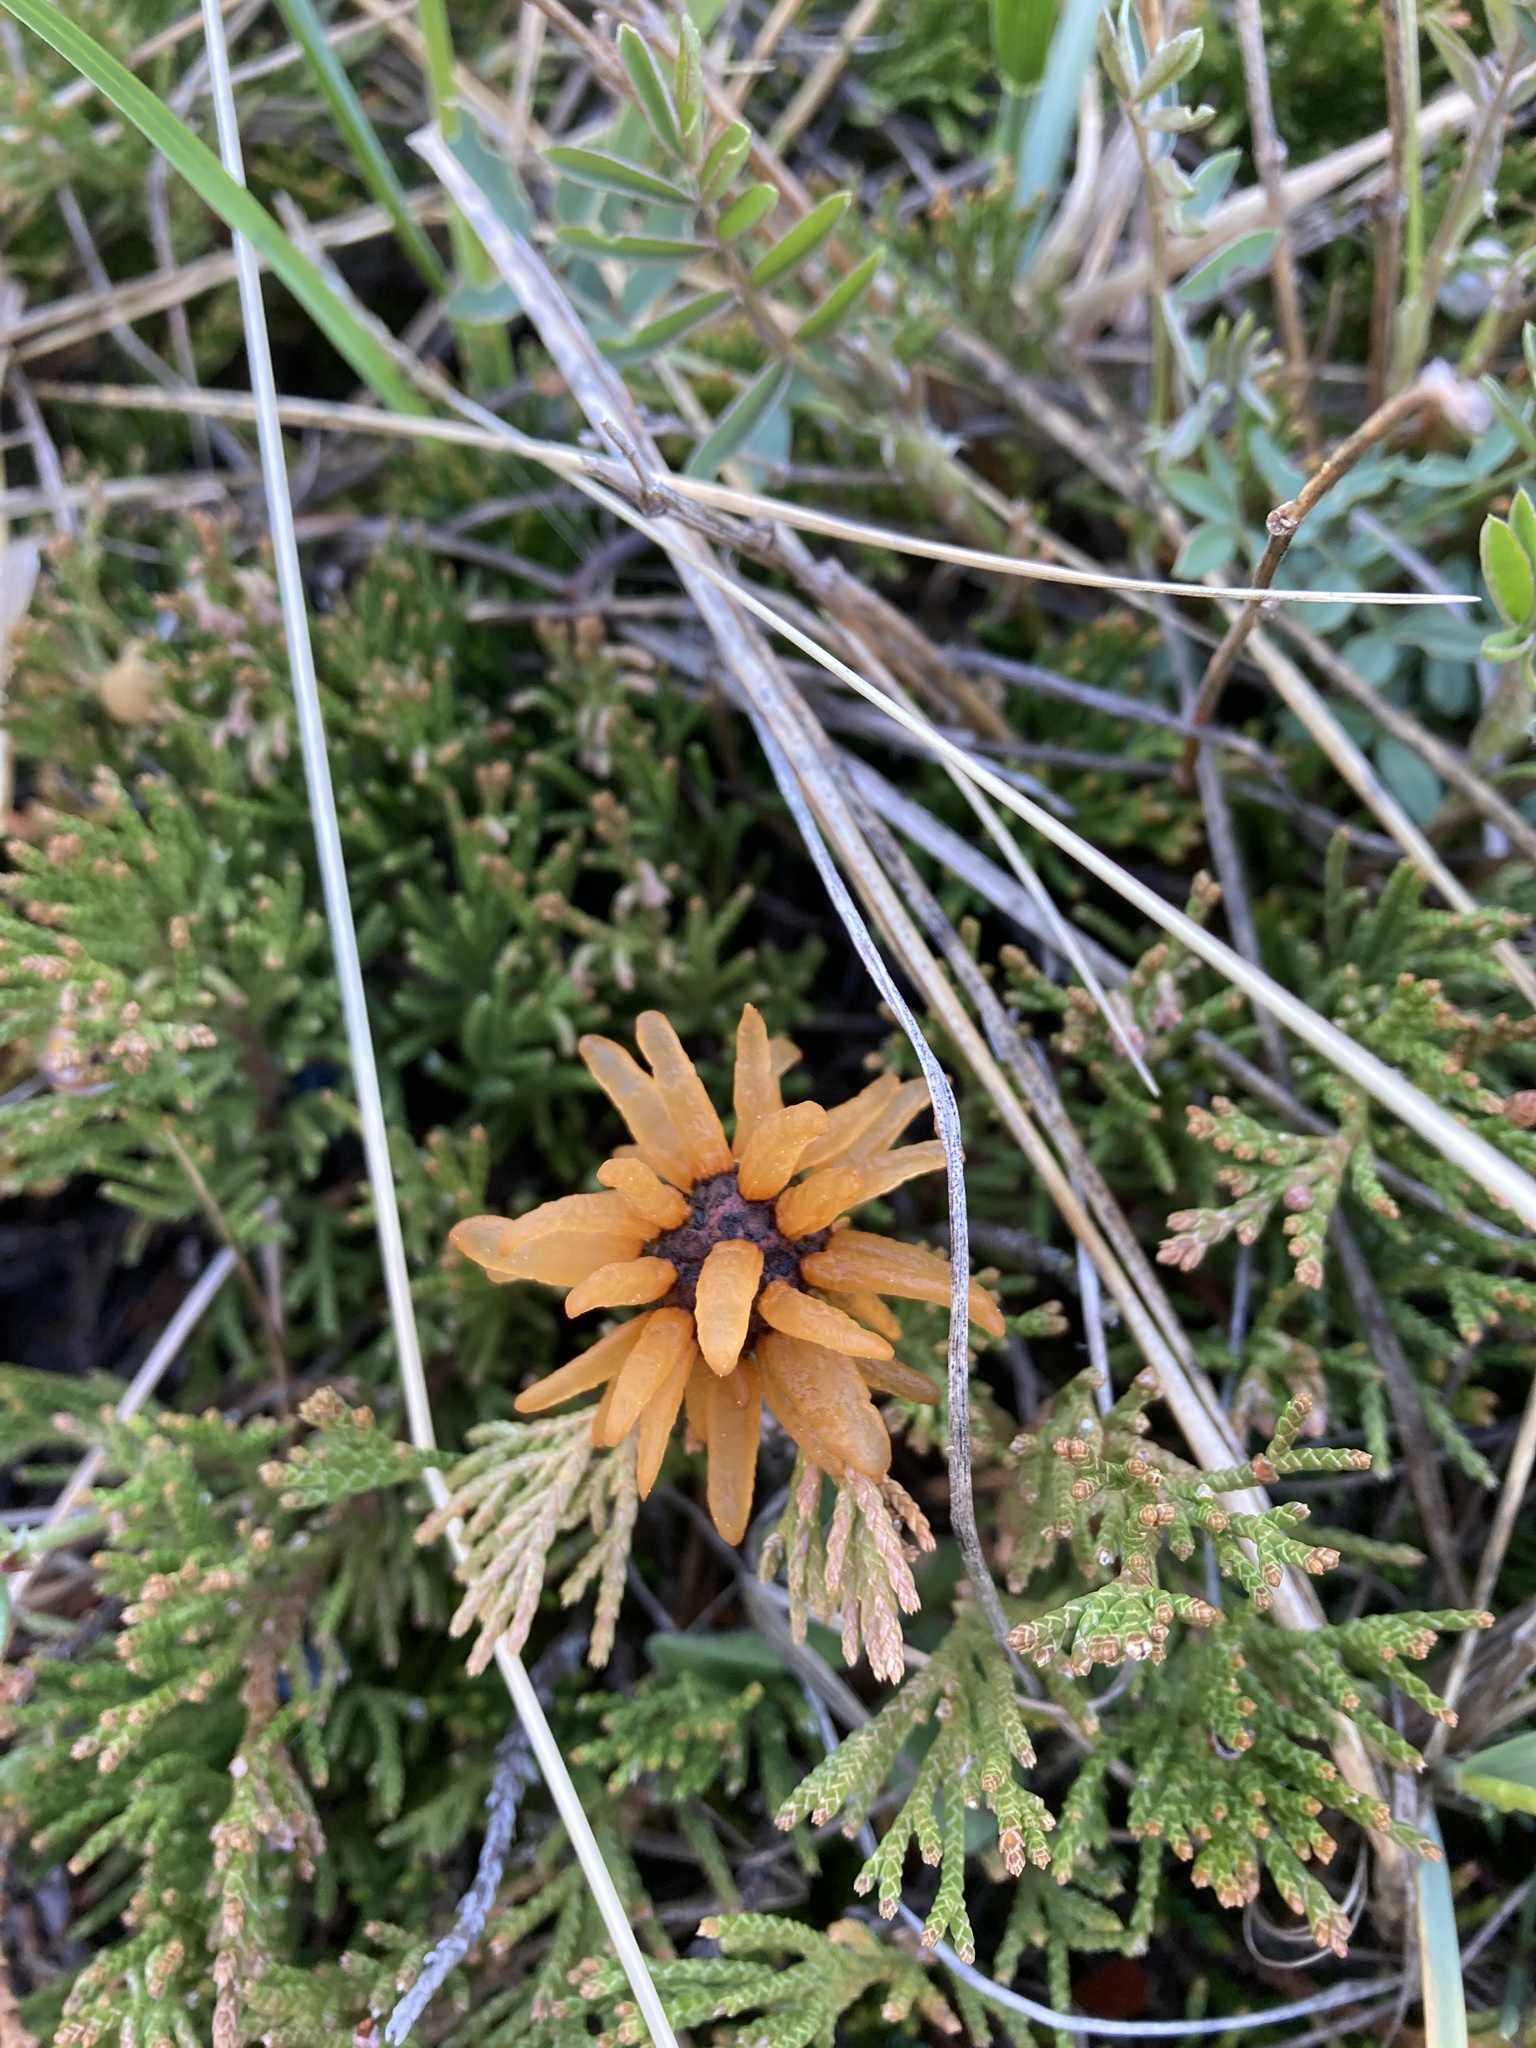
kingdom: Fungi
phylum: Basidiomycota
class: Pucciniomycetes
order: Pucciniales
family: Gymnosporangiaceae
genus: Gymnosporangium
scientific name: Gymnosporangium juniperi-virginianae
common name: Juniper-apple rust
